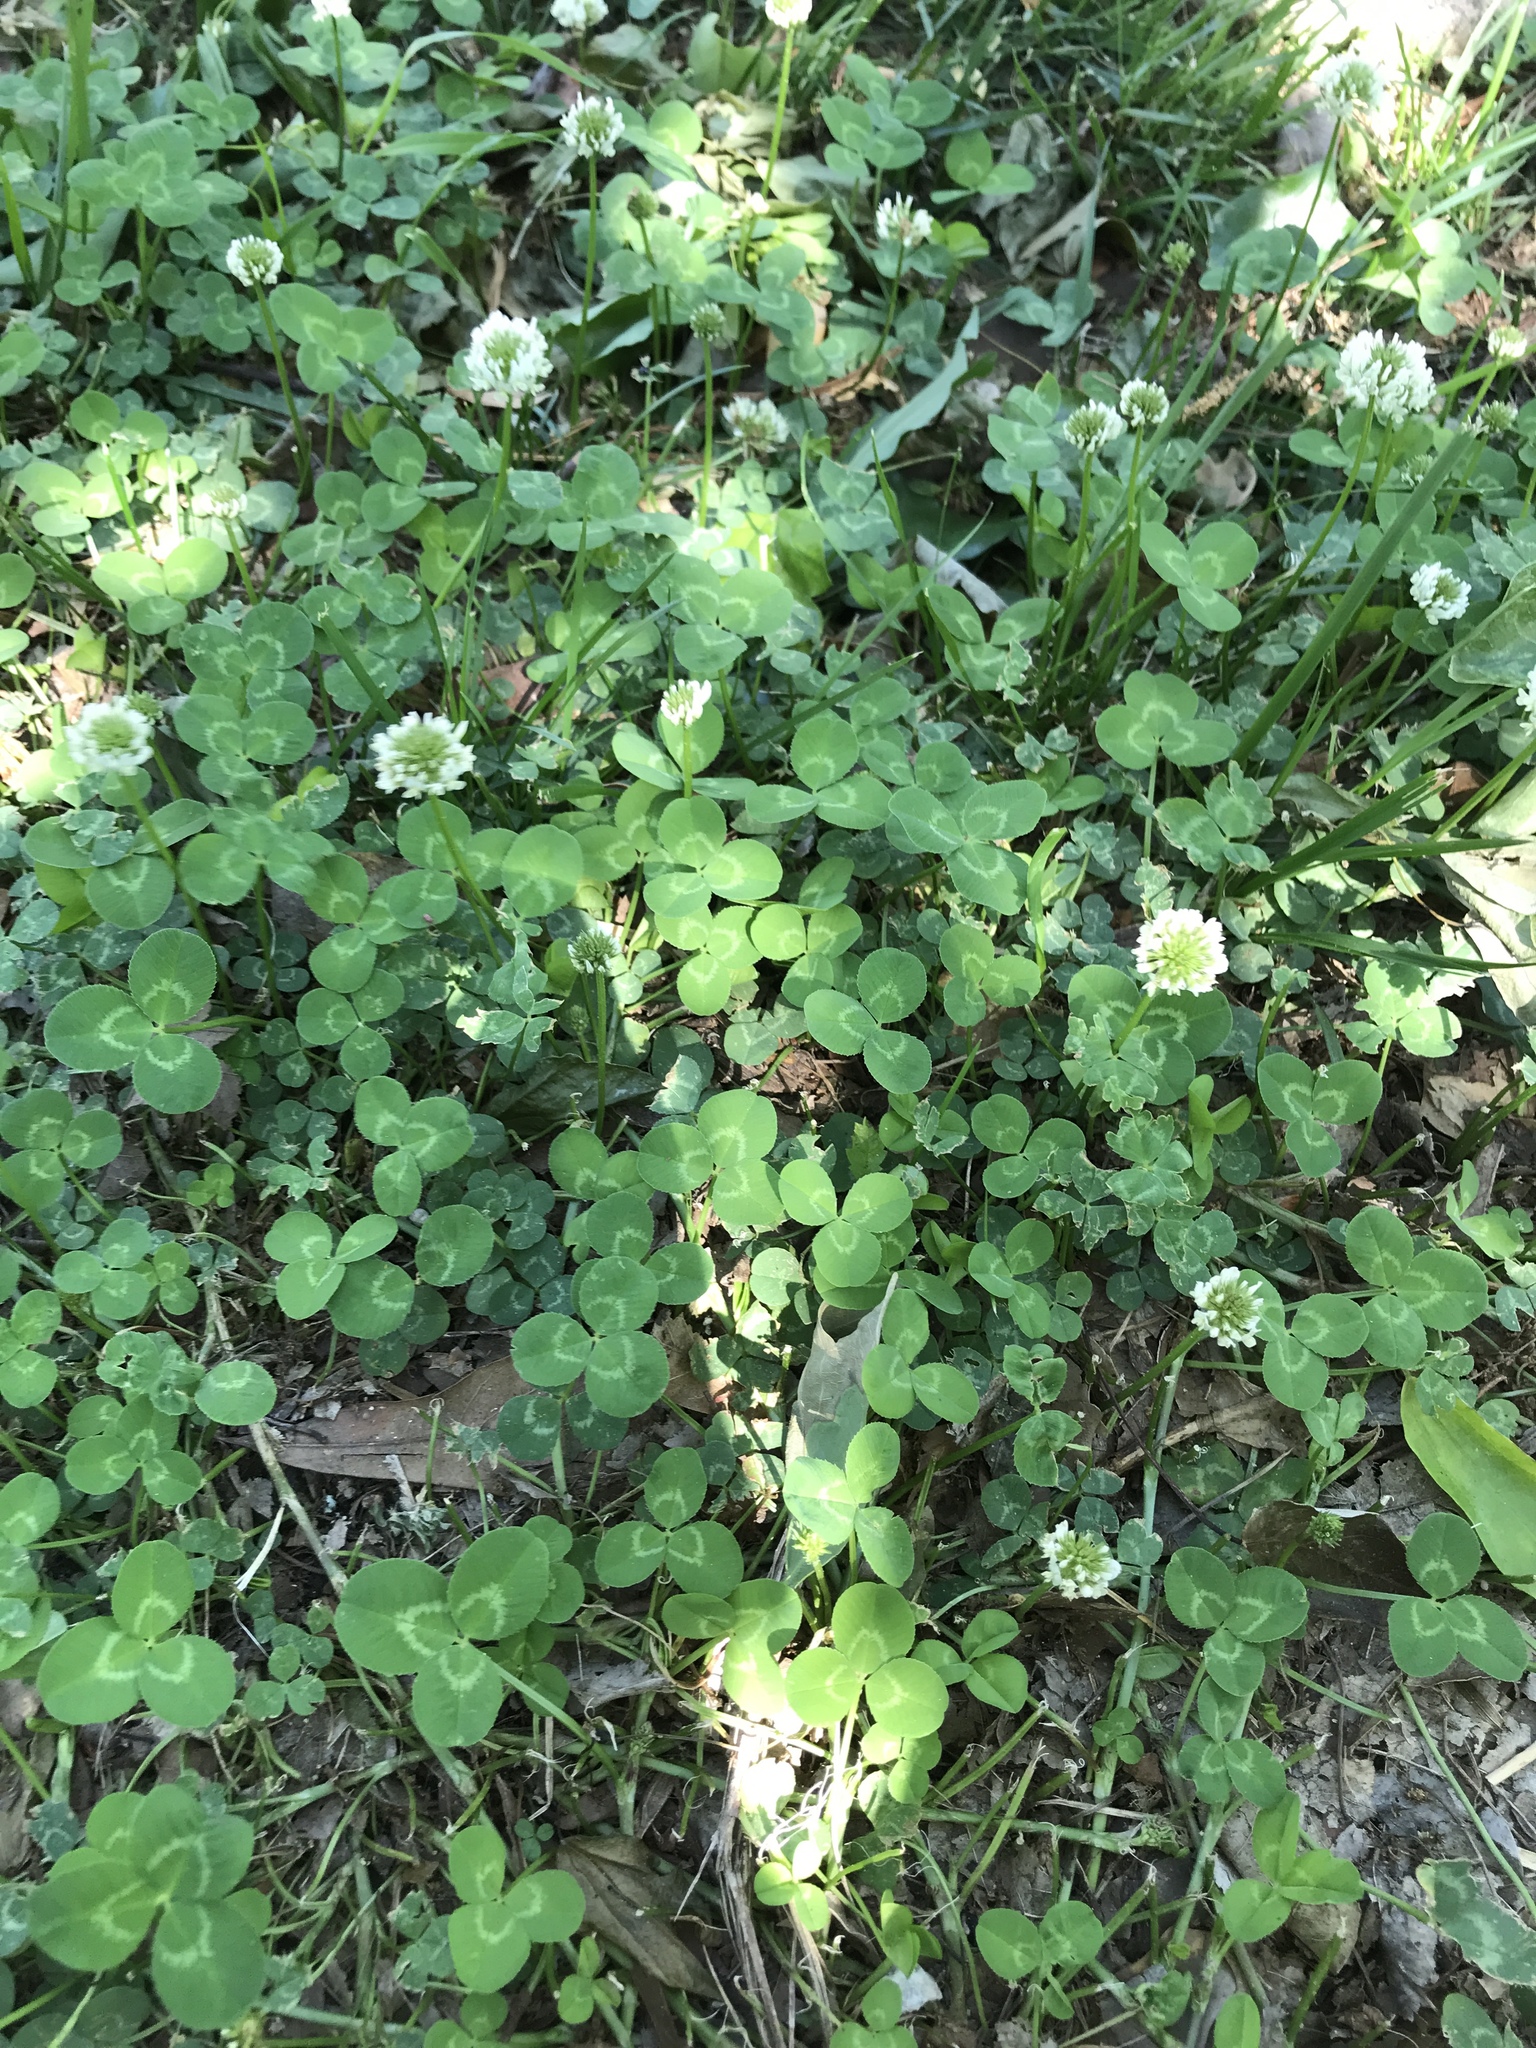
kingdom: Plantae
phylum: Tracheophyta
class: Magnoliopsida
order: Fabales
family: Fabaceae
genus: Trifolium
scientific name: Trifolium repens
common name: White clover
